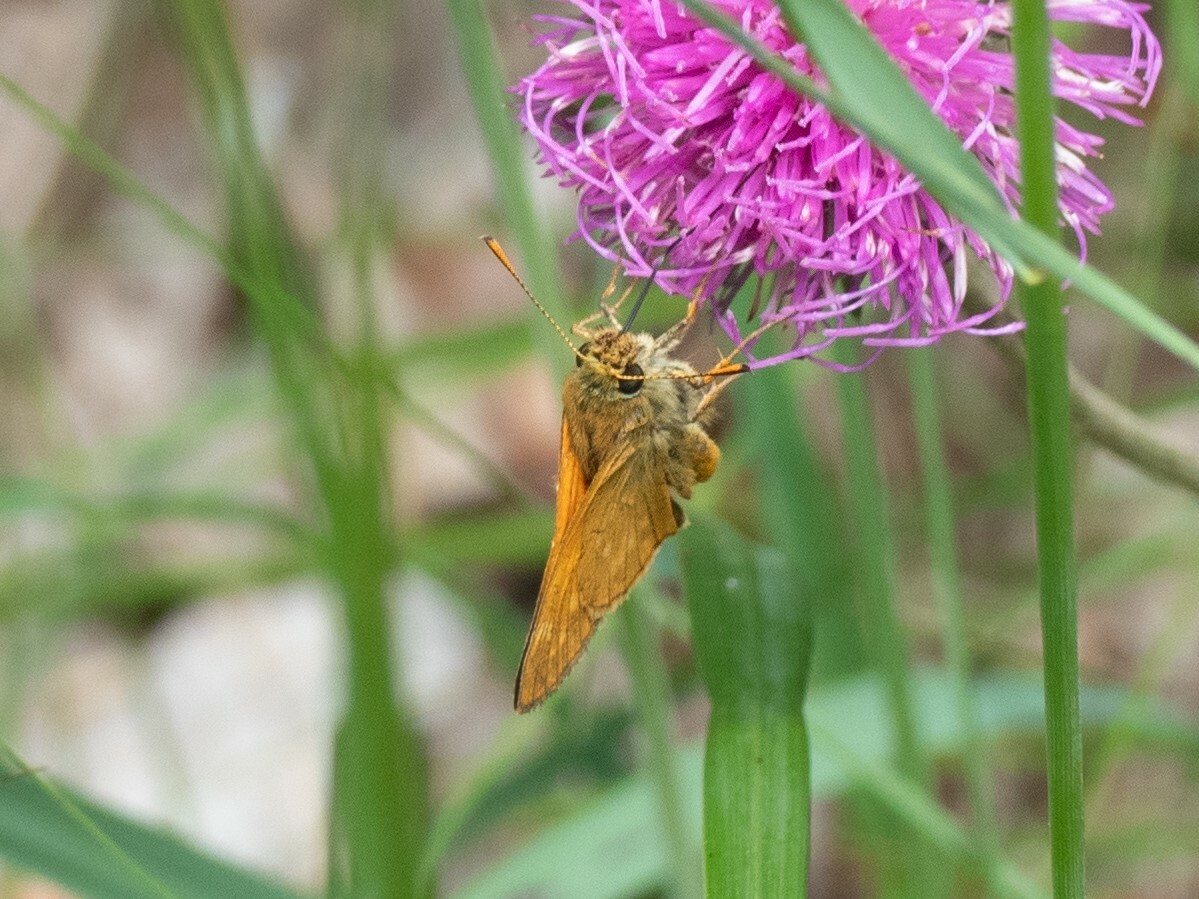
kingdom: Animalia
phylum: Arthropoda
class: Insecta
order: Lepidoptera
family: Hesperiidae
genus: Ochlodes
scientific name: Ochlodes venata
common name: Large skipper
